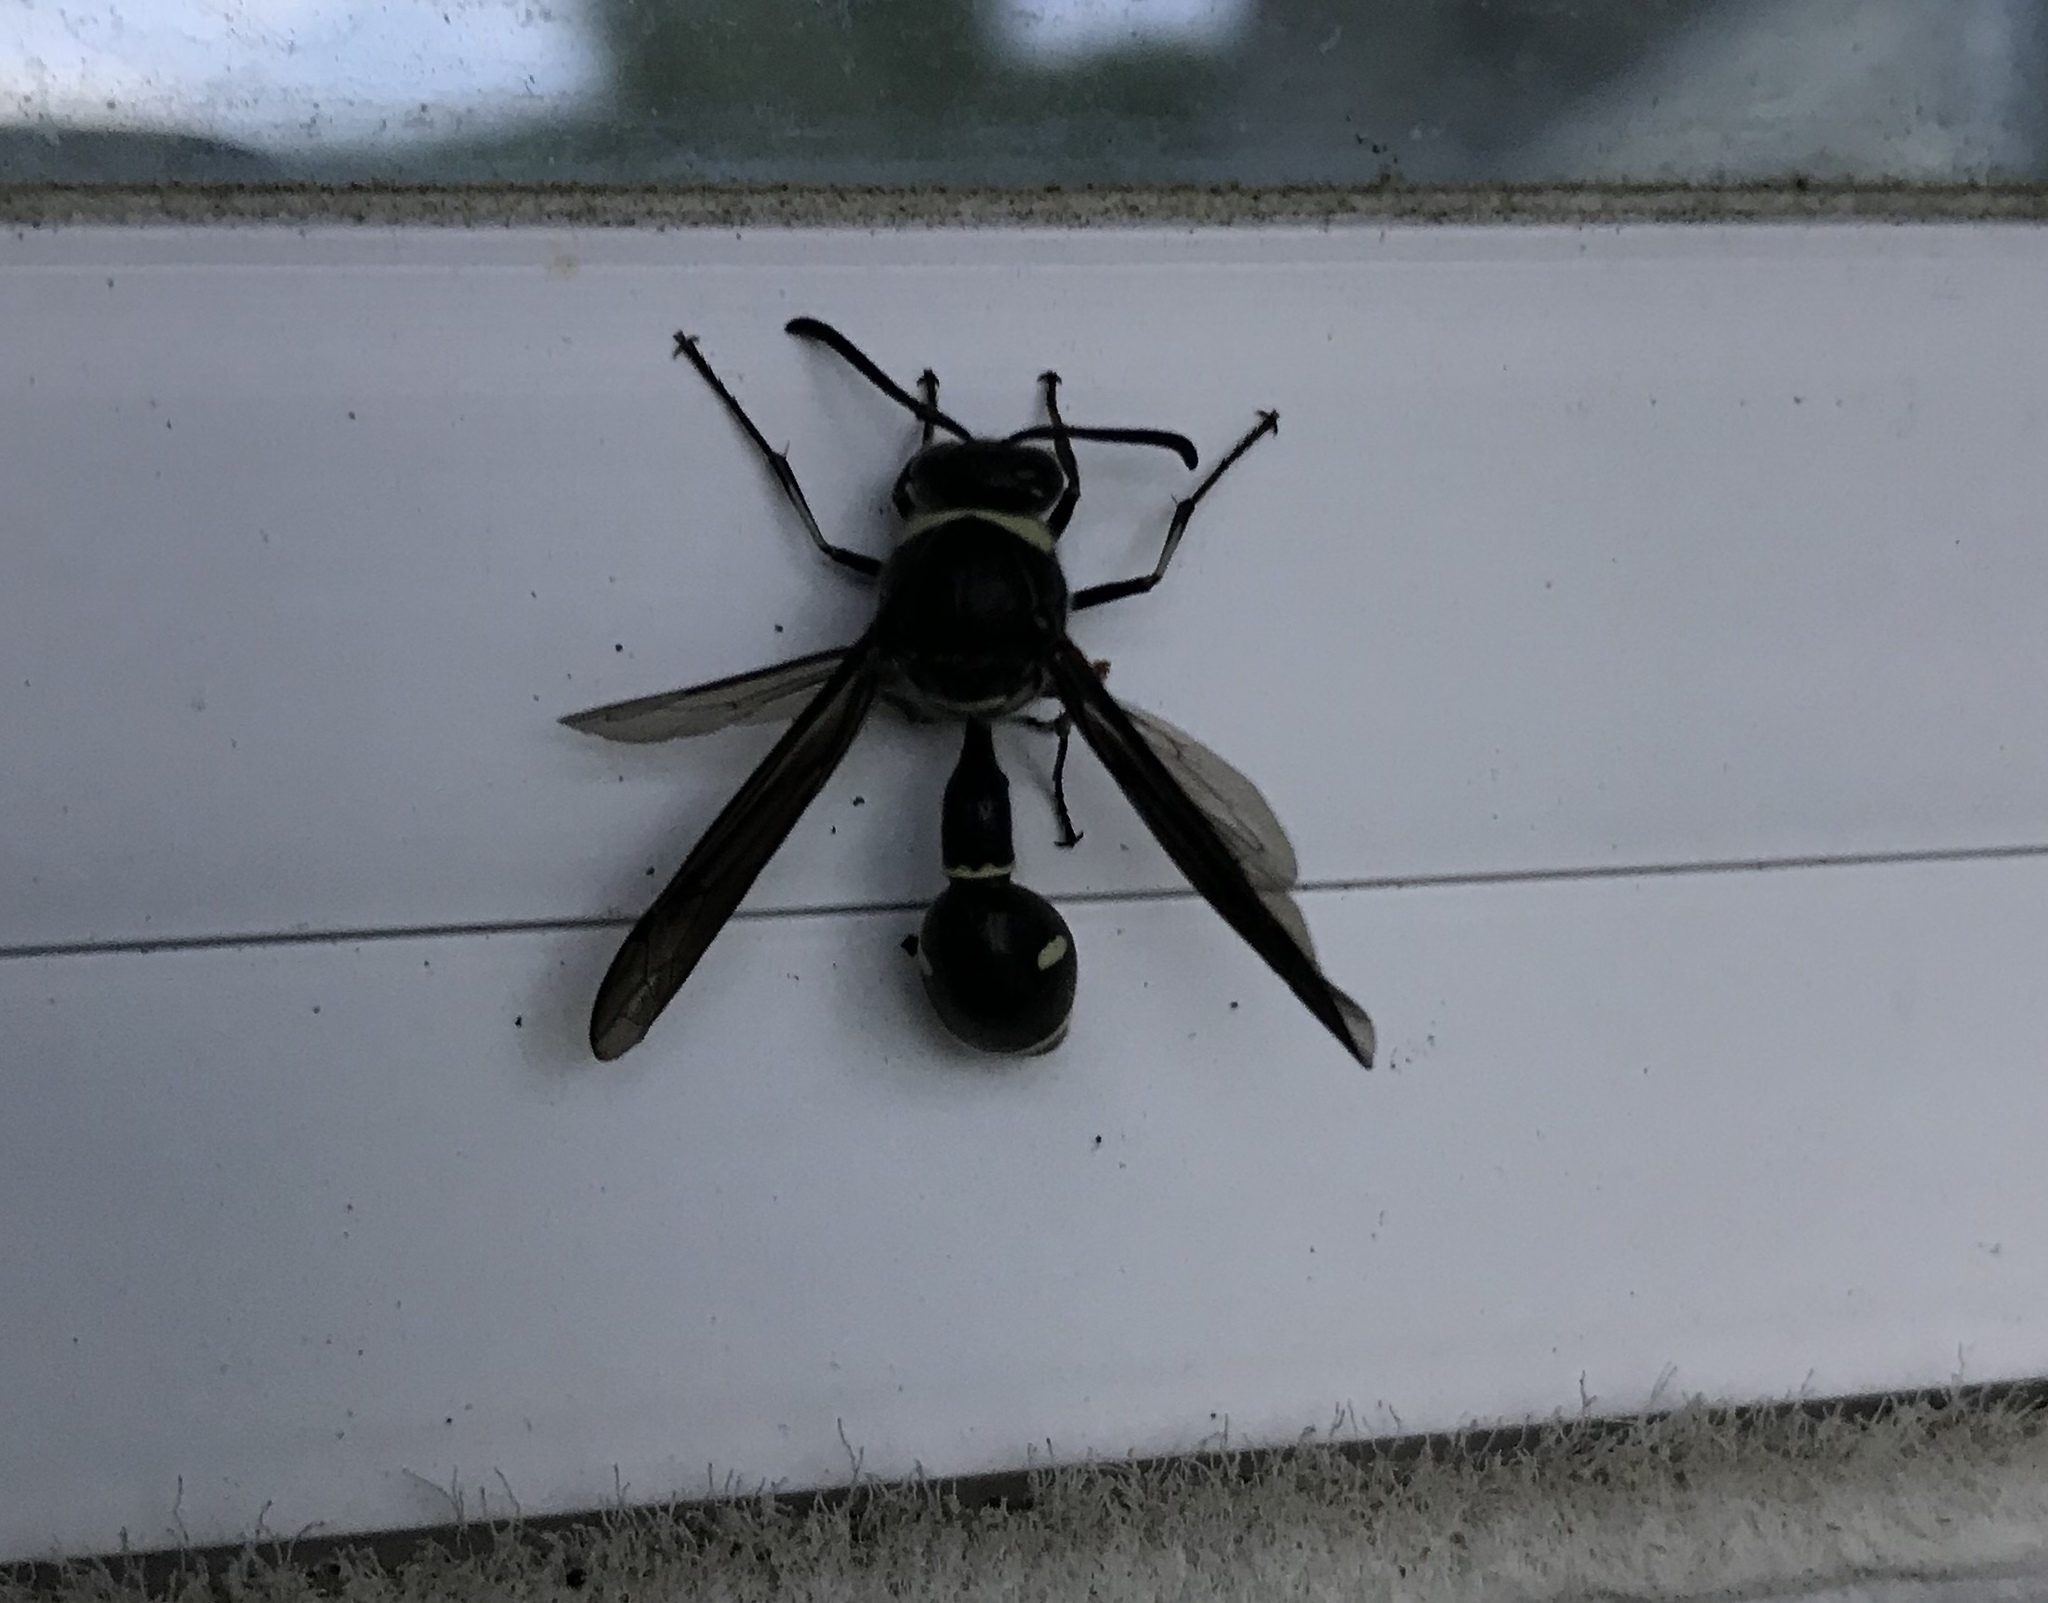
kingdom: Animalia
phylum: Arthropoda
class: Insecta
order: Hymenoptera
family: Vespidae
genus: Eumenes
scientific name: Eumenes fraternus
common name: Fraternal potter wasp
